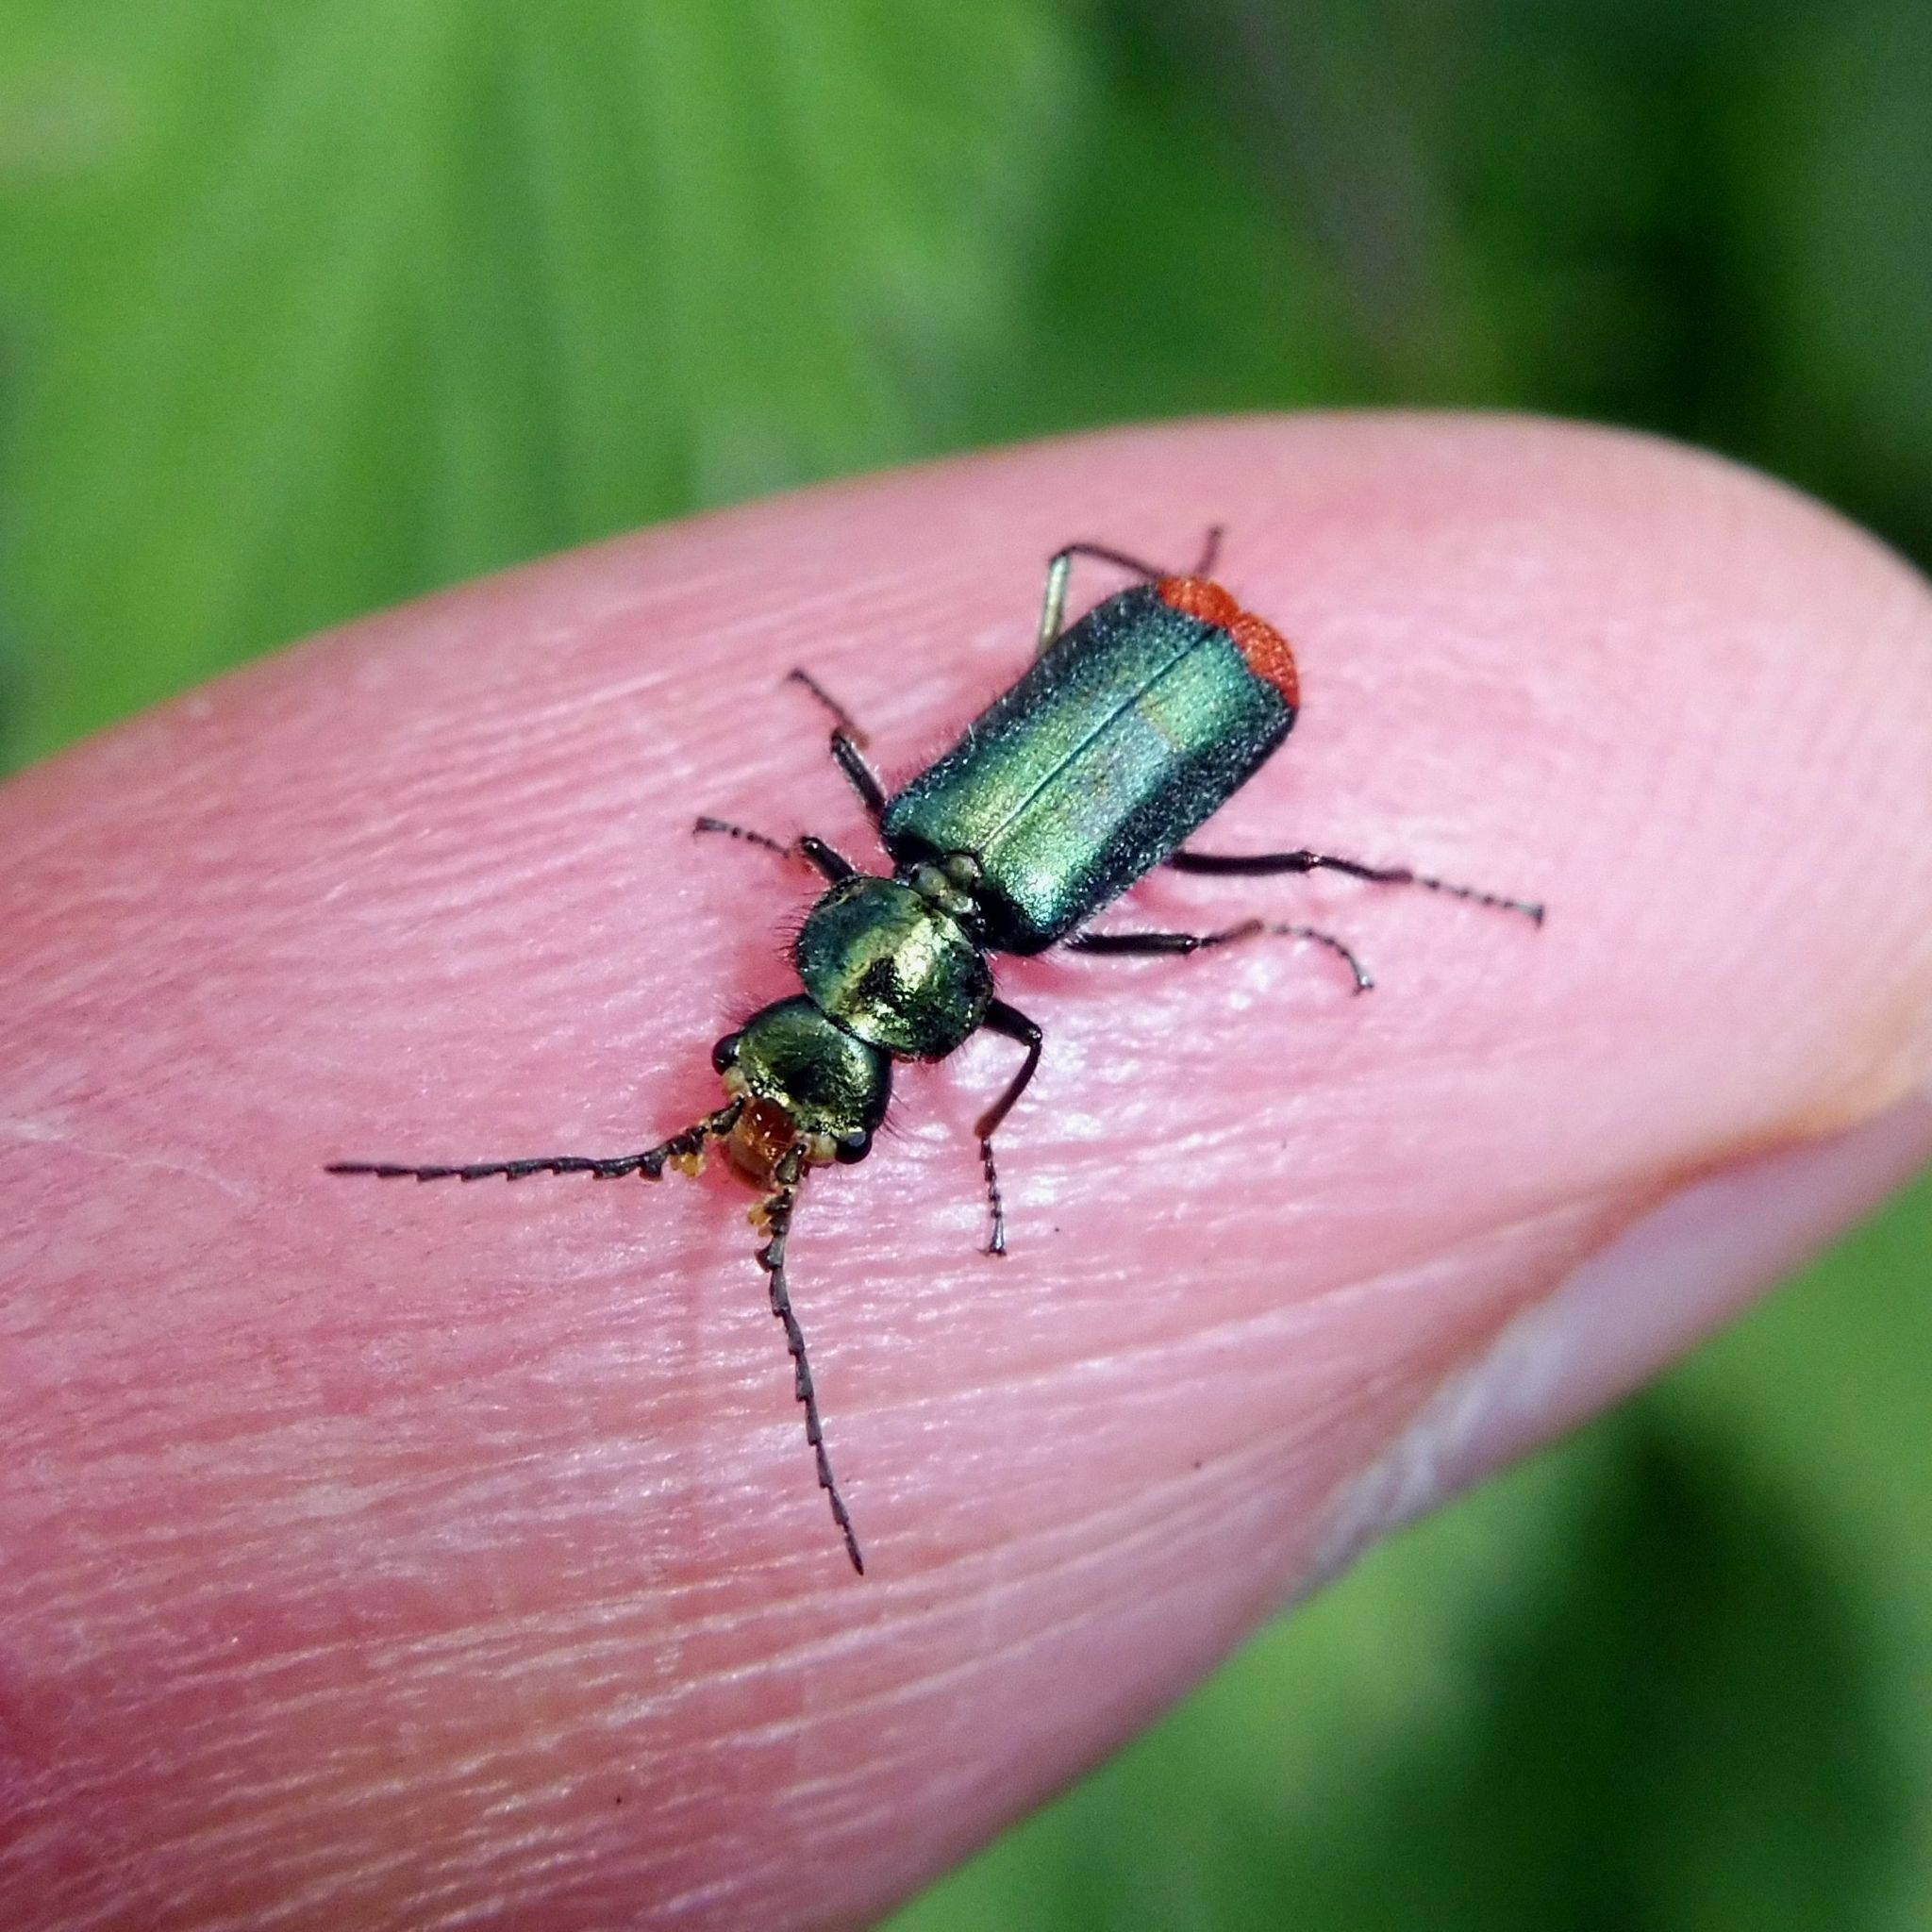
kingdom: Animalia
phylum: Arthropoda
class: Insecta
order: Coleoptera
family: Melyridae
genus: Malachius
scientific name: Malachius bipustulatus
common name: Malachite beetle
